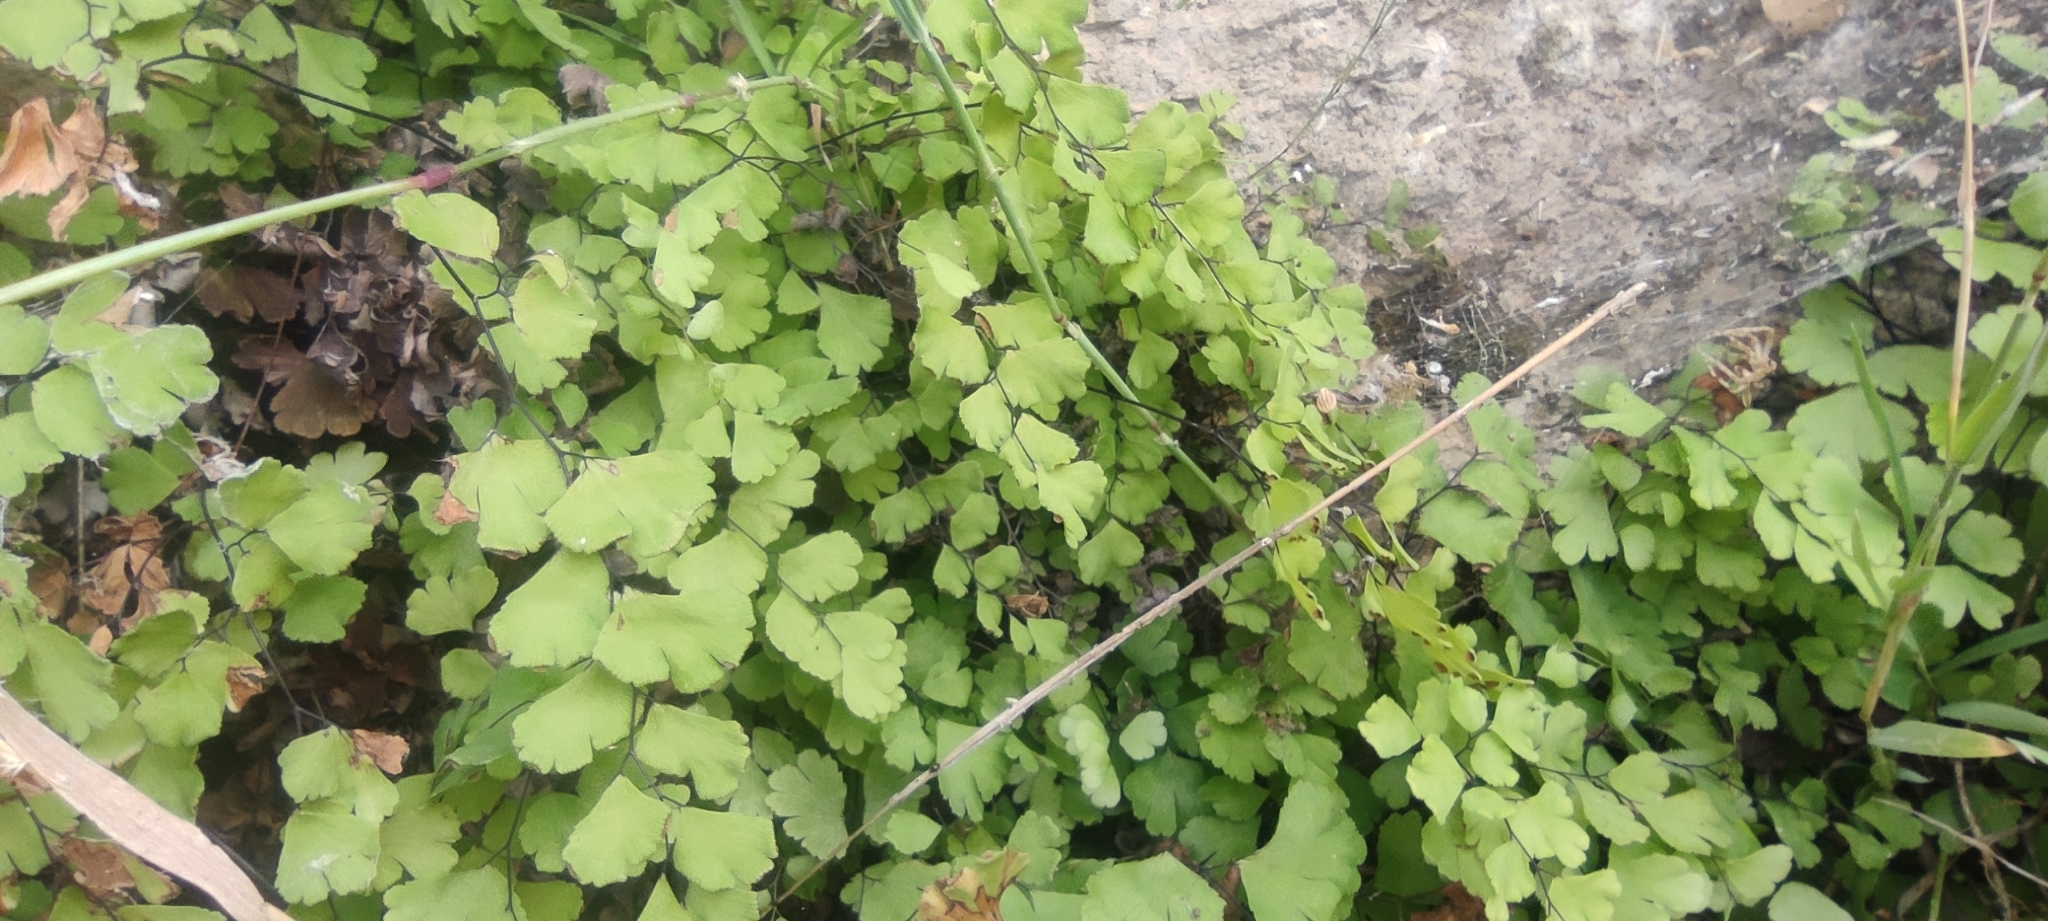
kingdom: Plantae
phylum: Tracheophyta
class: Polypodiopsida
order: Polypodiales
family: Pteridaceae
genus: Adiantum
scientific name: Adiantum capillus-veneris
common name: Maidenhair fern
